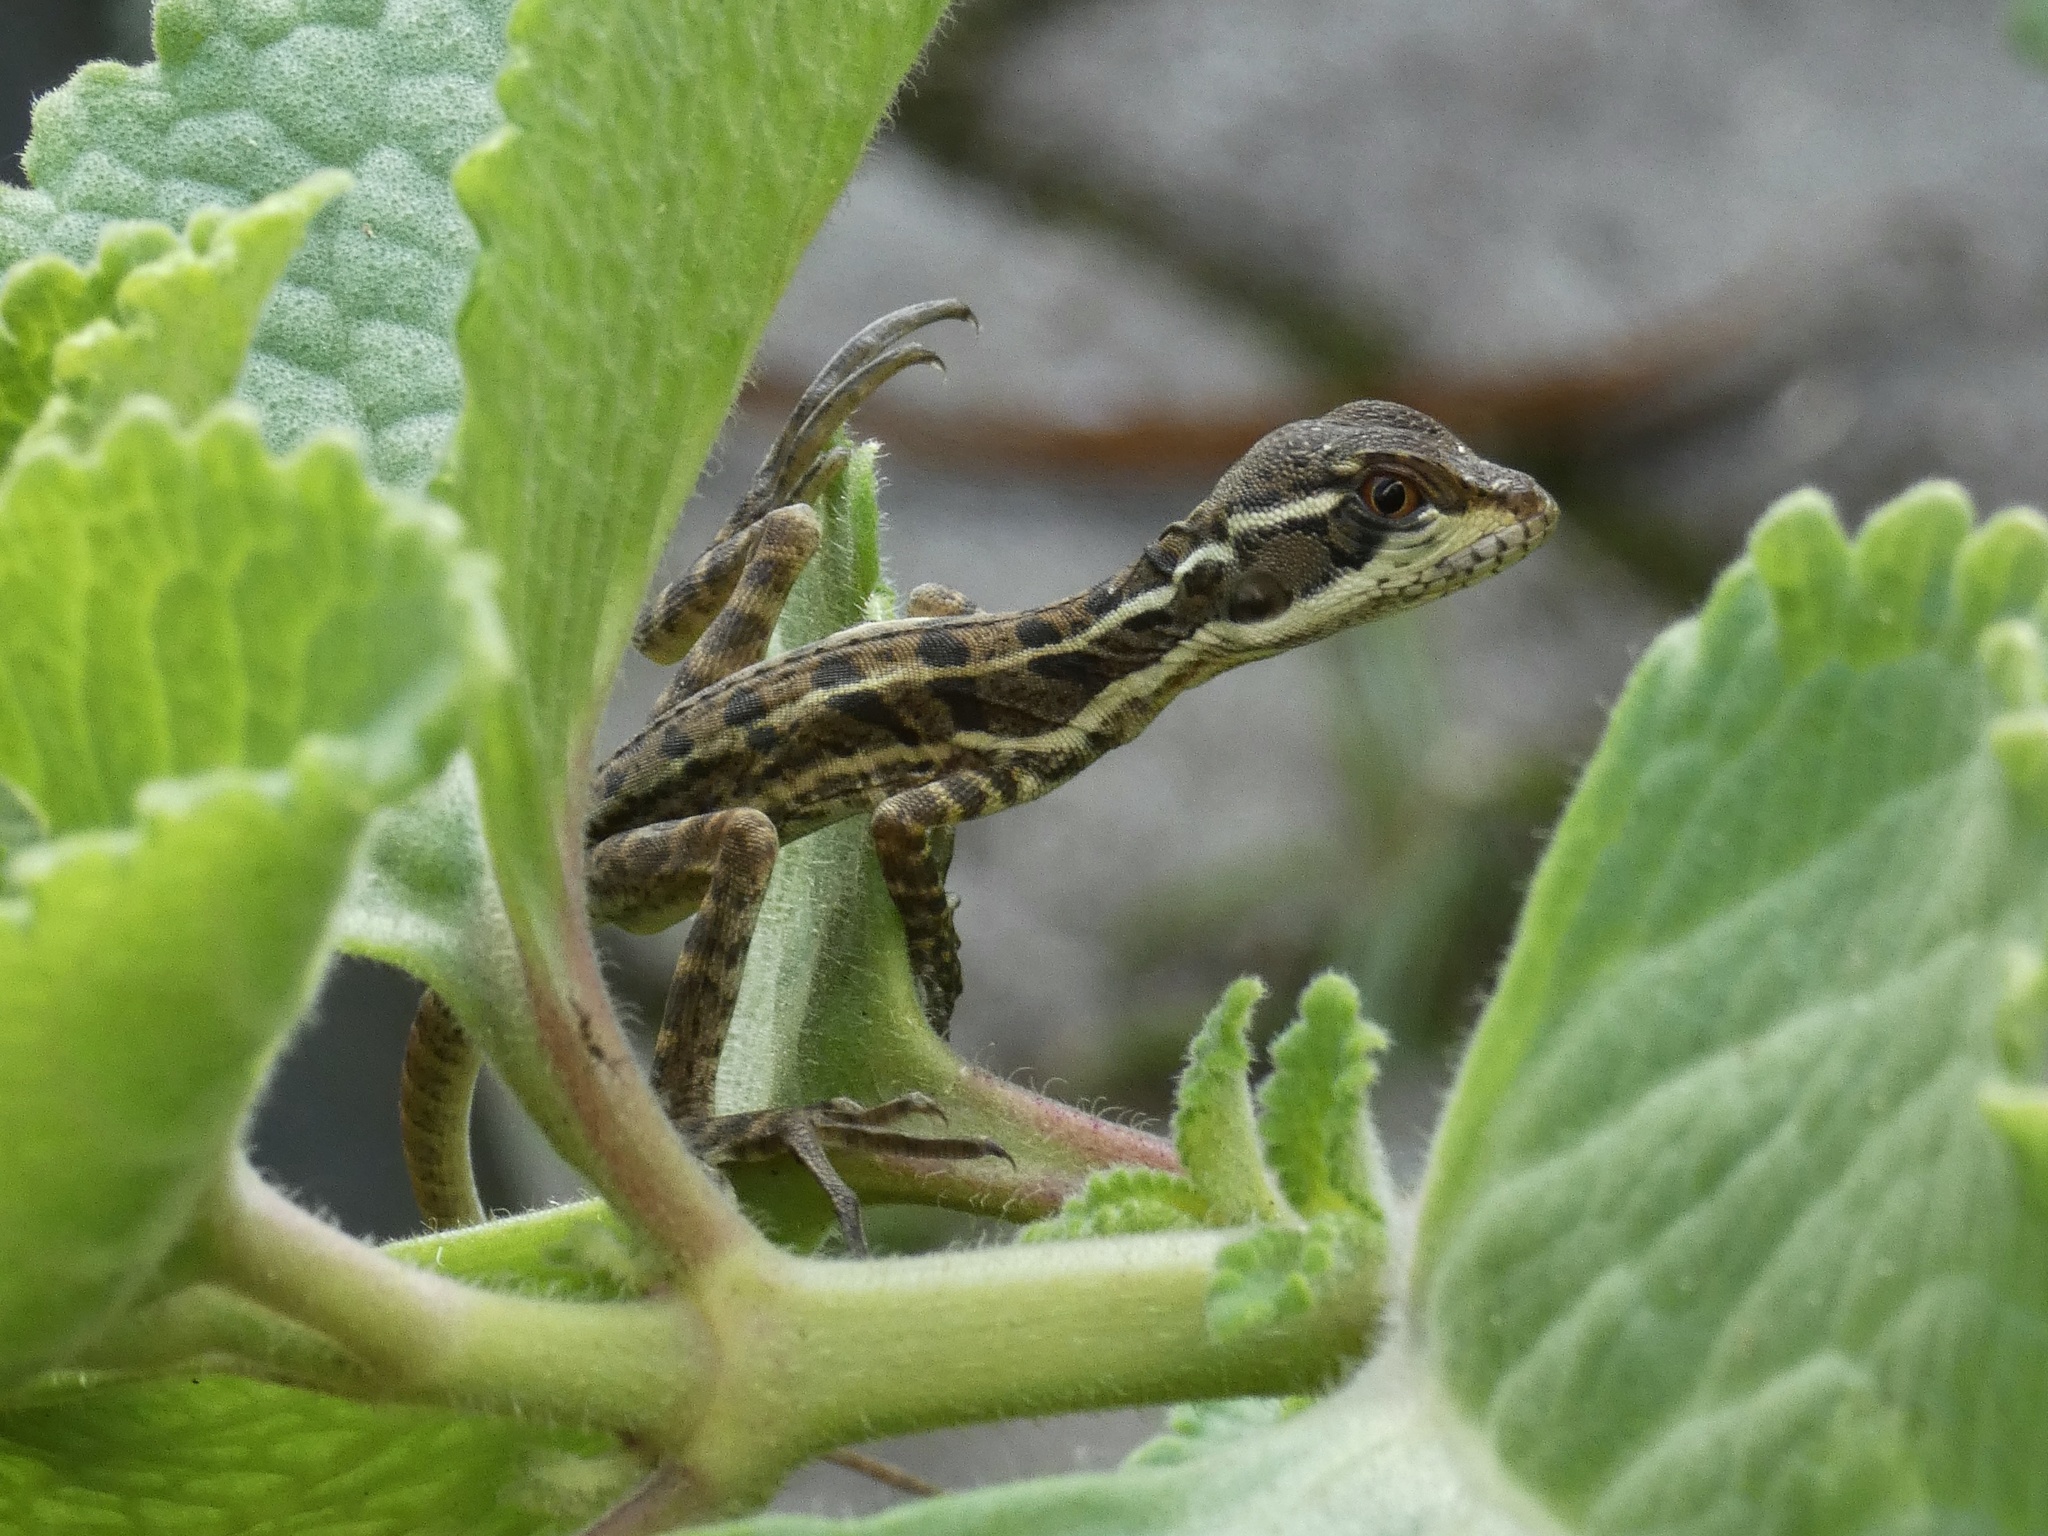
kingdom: Animalia
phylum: Chordata
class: Squamata
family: Corytophanidae
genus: Basiliscus
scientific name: Basiliscus basiliscus
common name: Common basilisk
